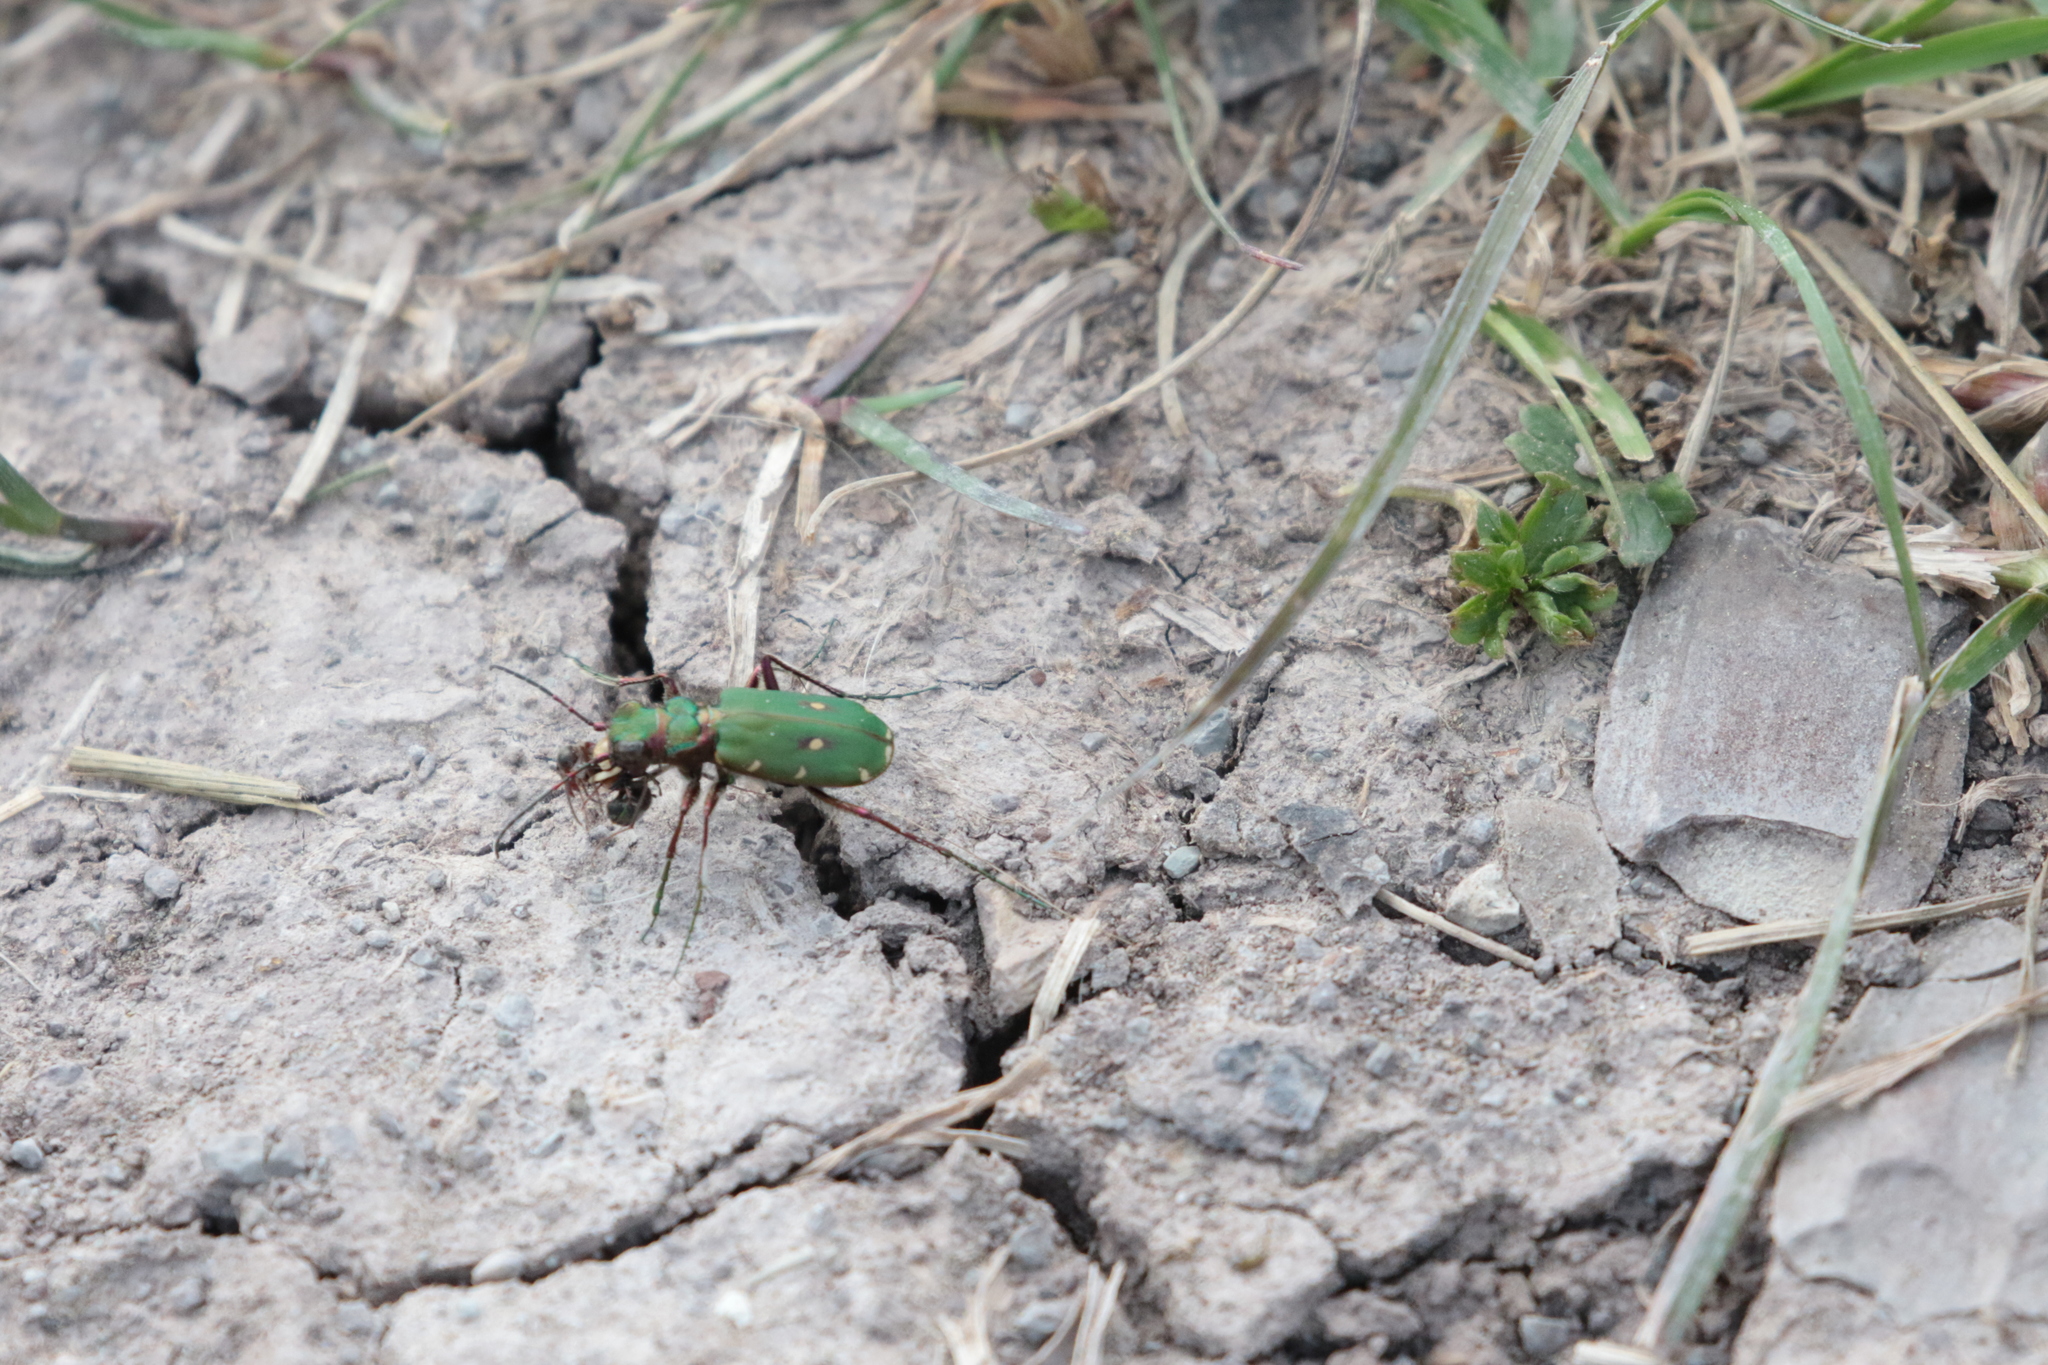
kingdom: Animalia
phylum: Arthropoda
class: Insecta
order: Coleoptera
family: Carabidae
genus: Cicindela
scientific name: Cicindela campestris
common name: Common tiger beetle
